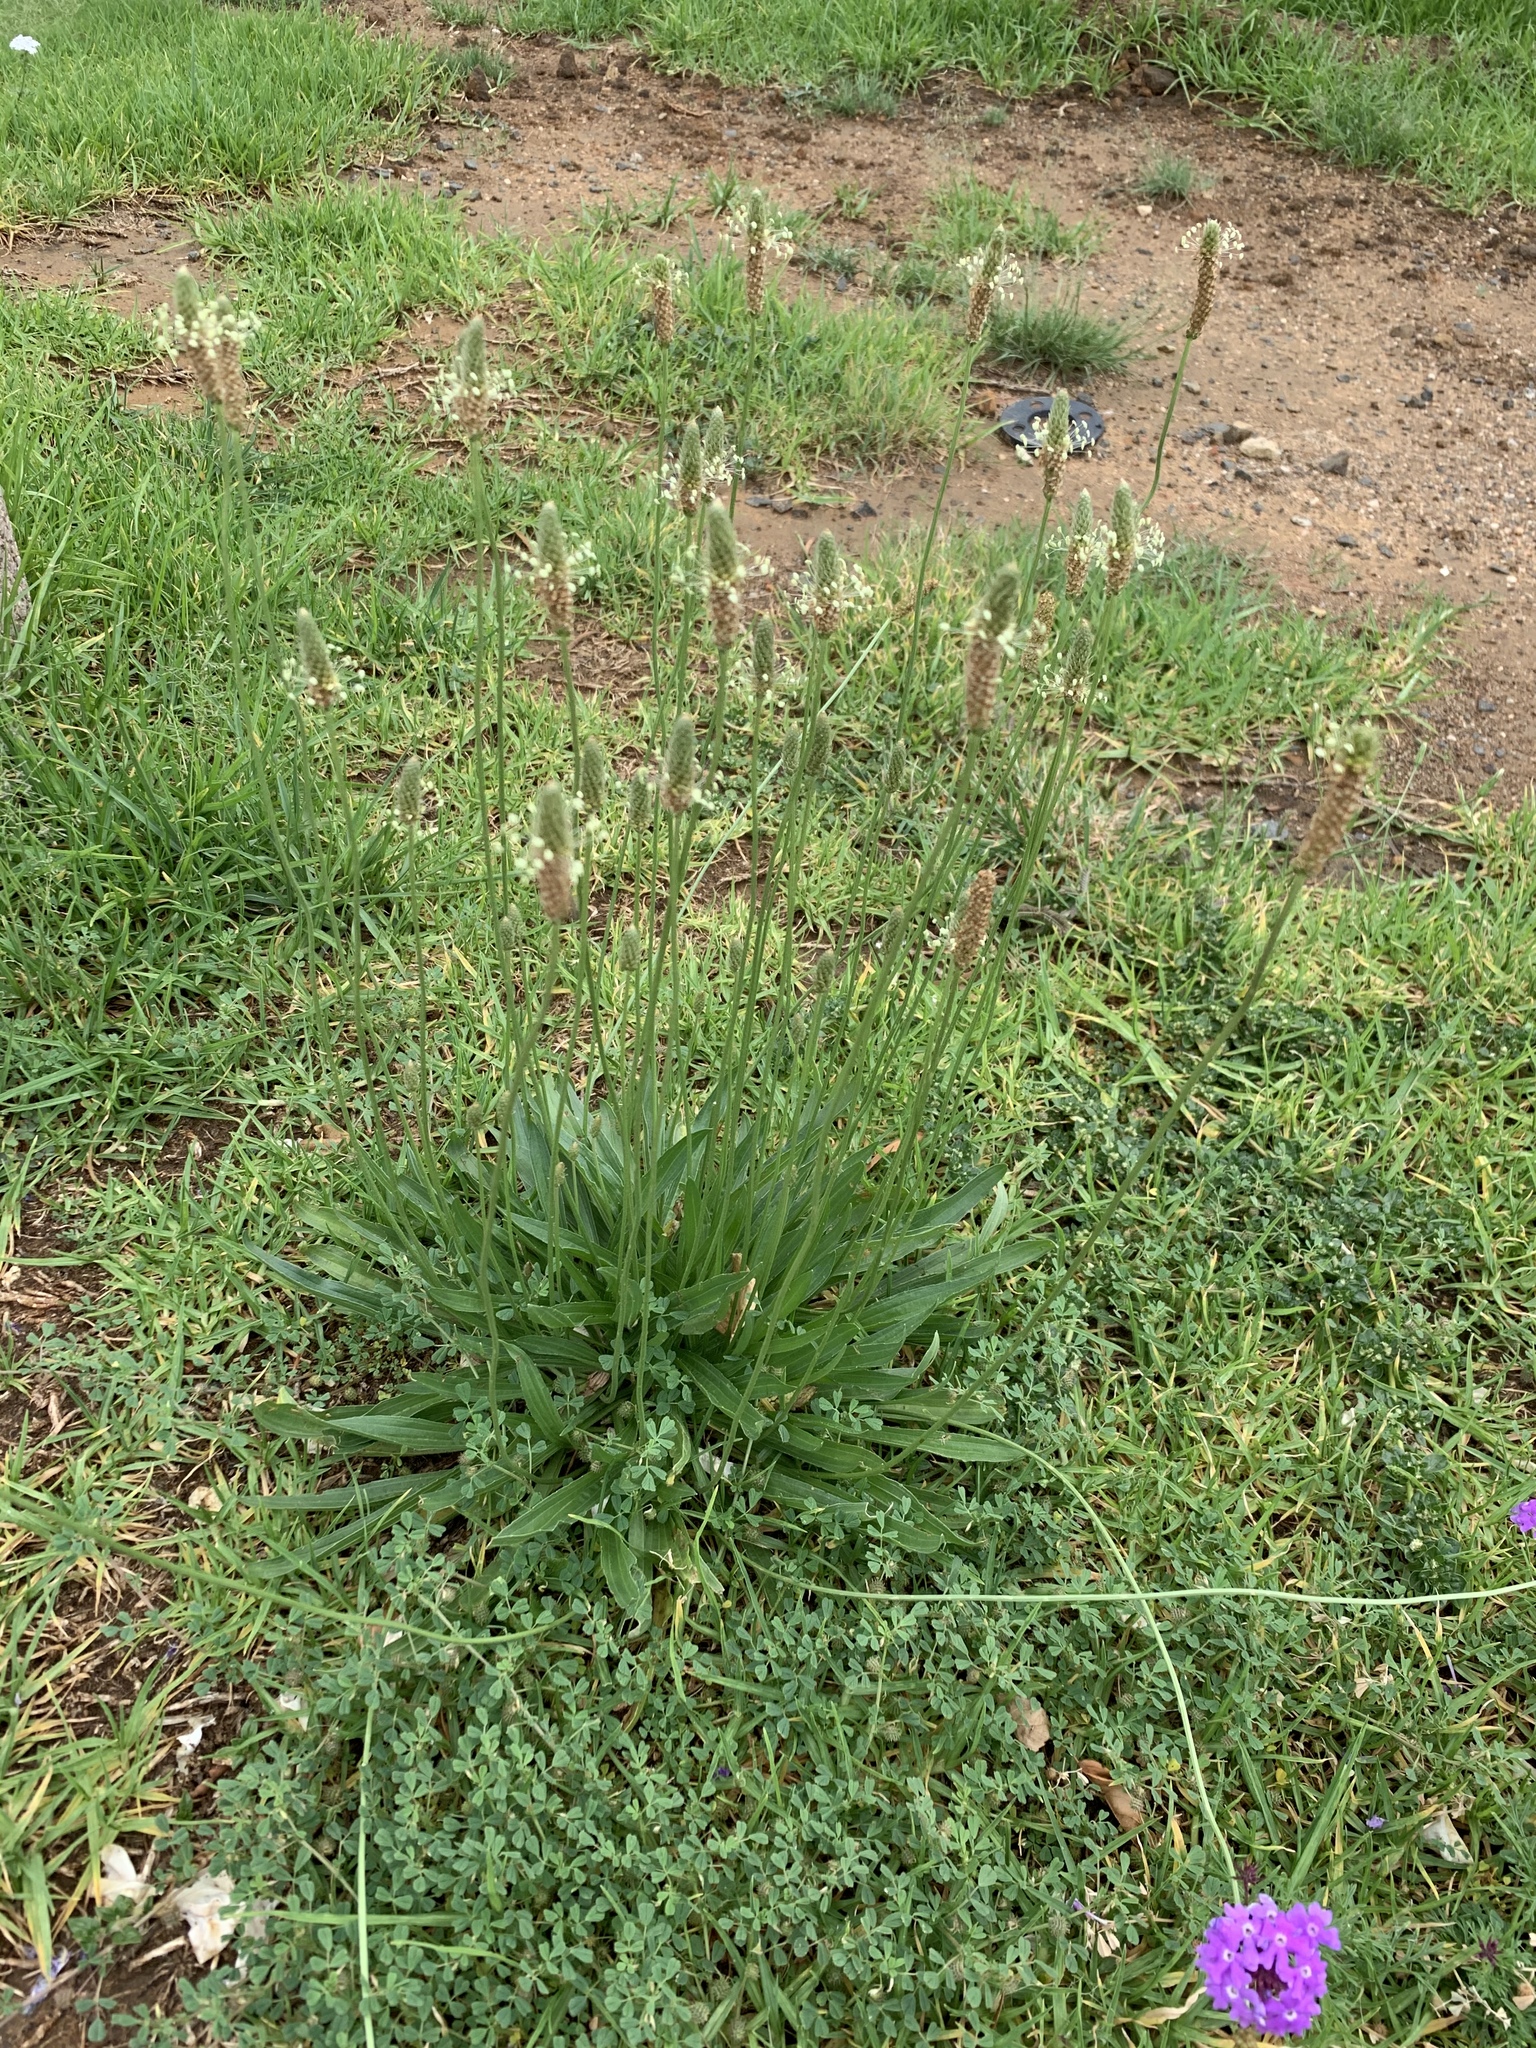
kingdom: Plantae
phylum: Tracheophyta
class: Magnoliopsida
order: Lamiales
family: Plantaginaceae
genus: Plantago
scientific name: Plantago lanceolata
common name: Ribwort plantain
